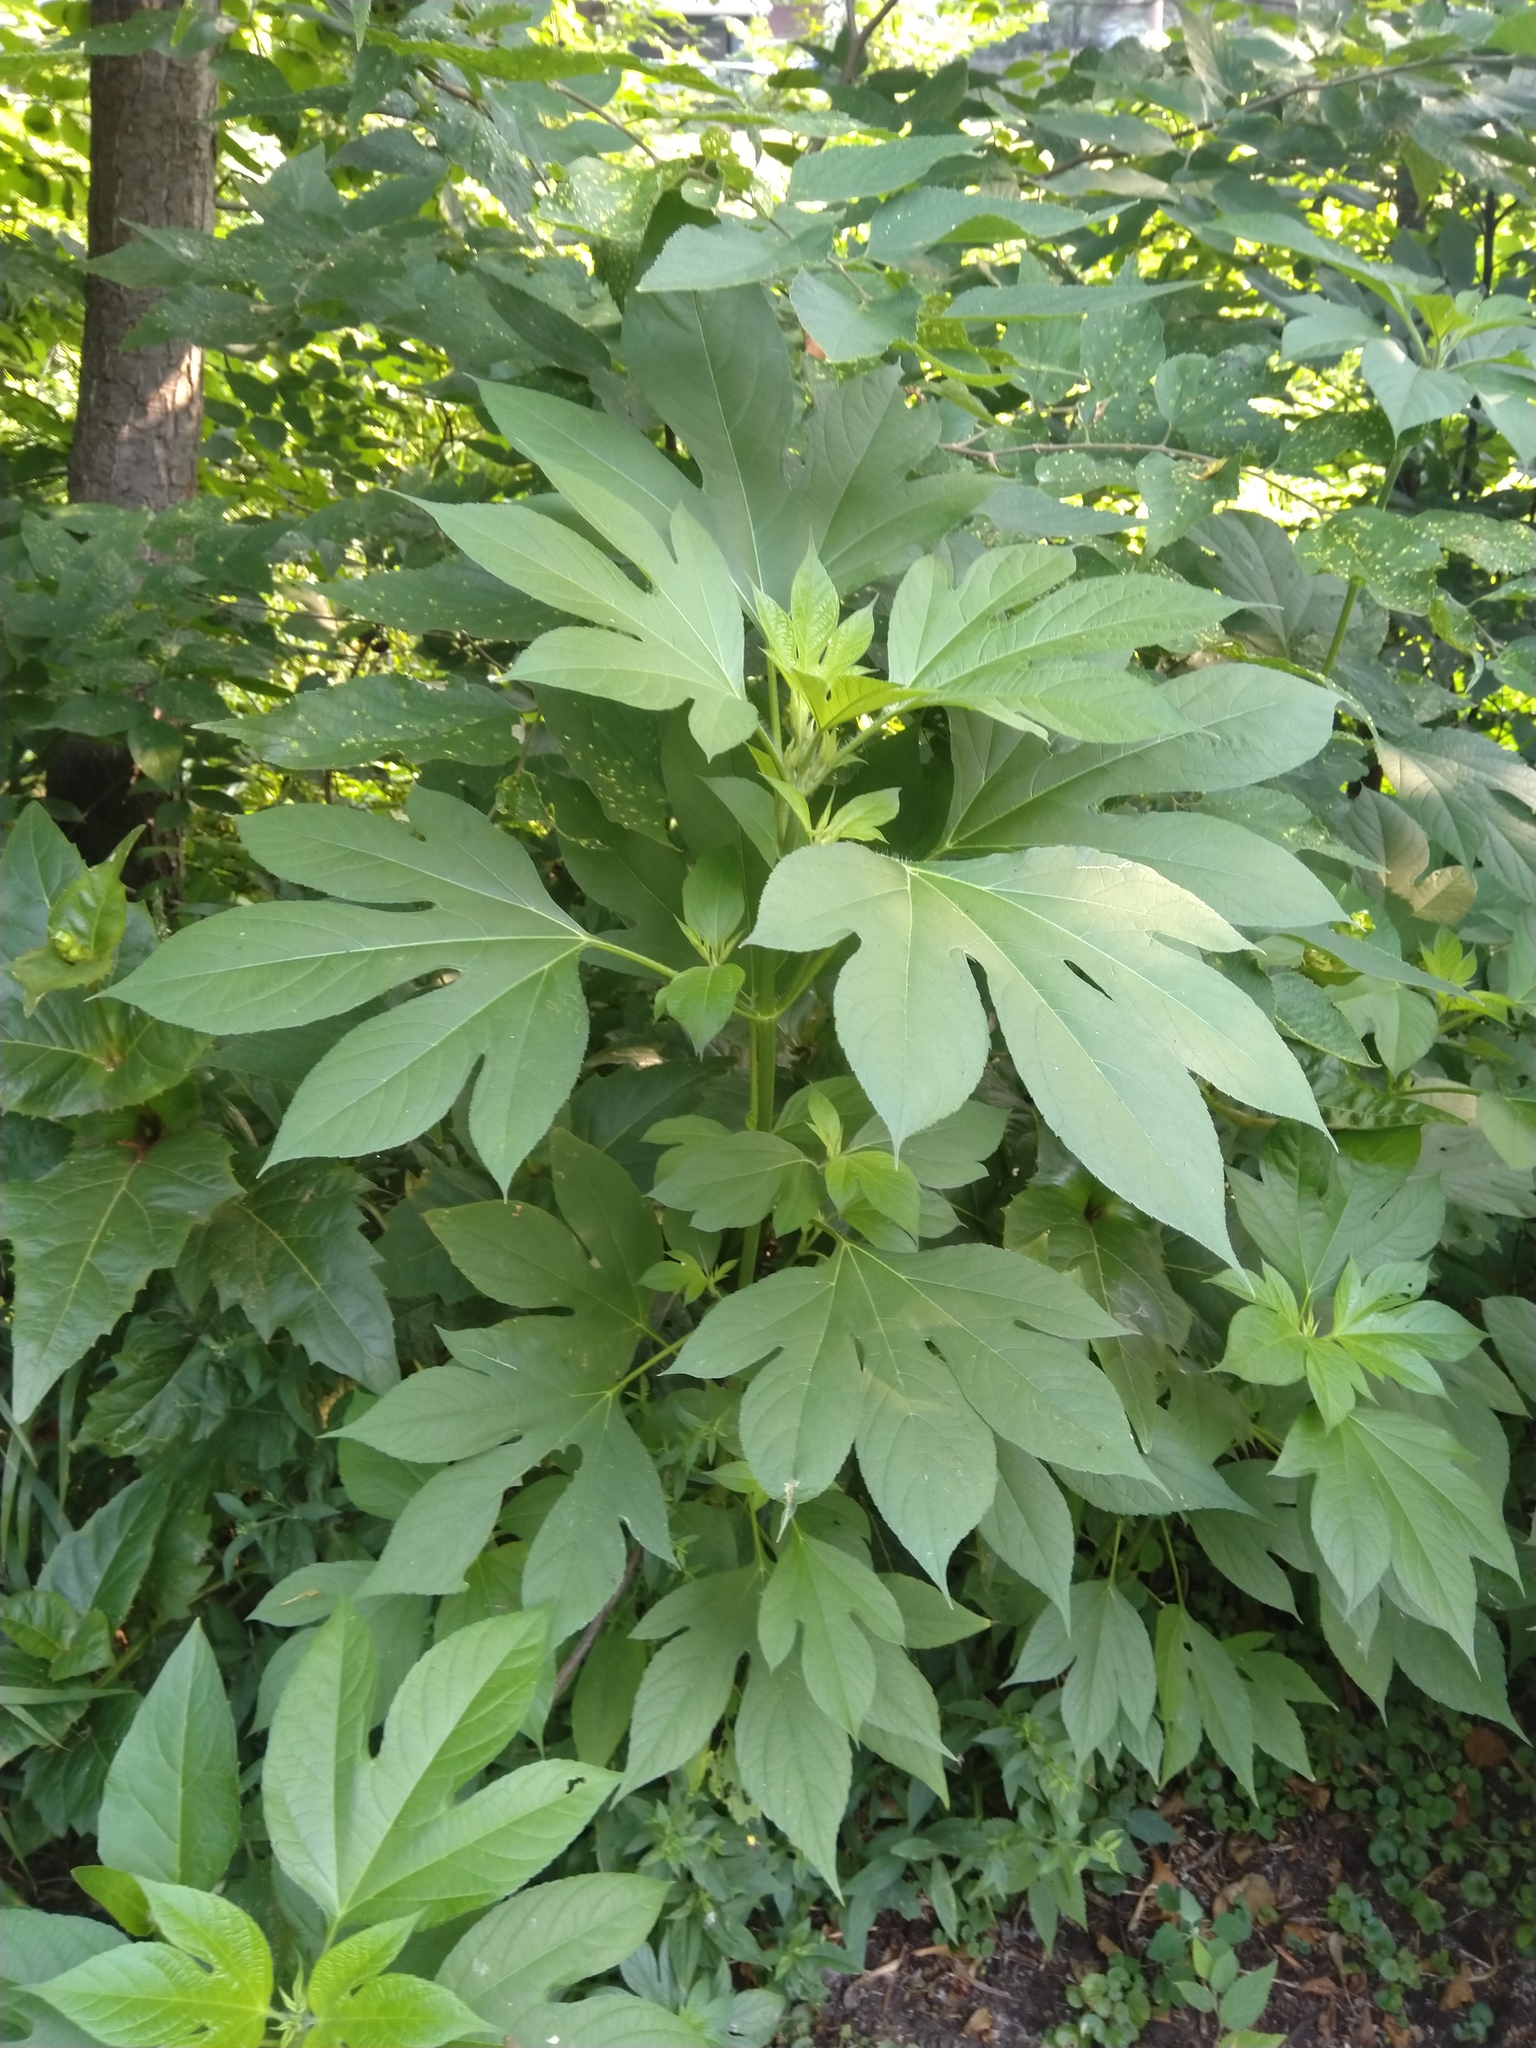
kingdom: Plantae
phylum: Tracheophyta
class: Magnoliopsida
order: Asterales
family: Asteraceae
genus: Ambrosia
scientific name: Ambrosia trifida
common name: Giant ragweed
